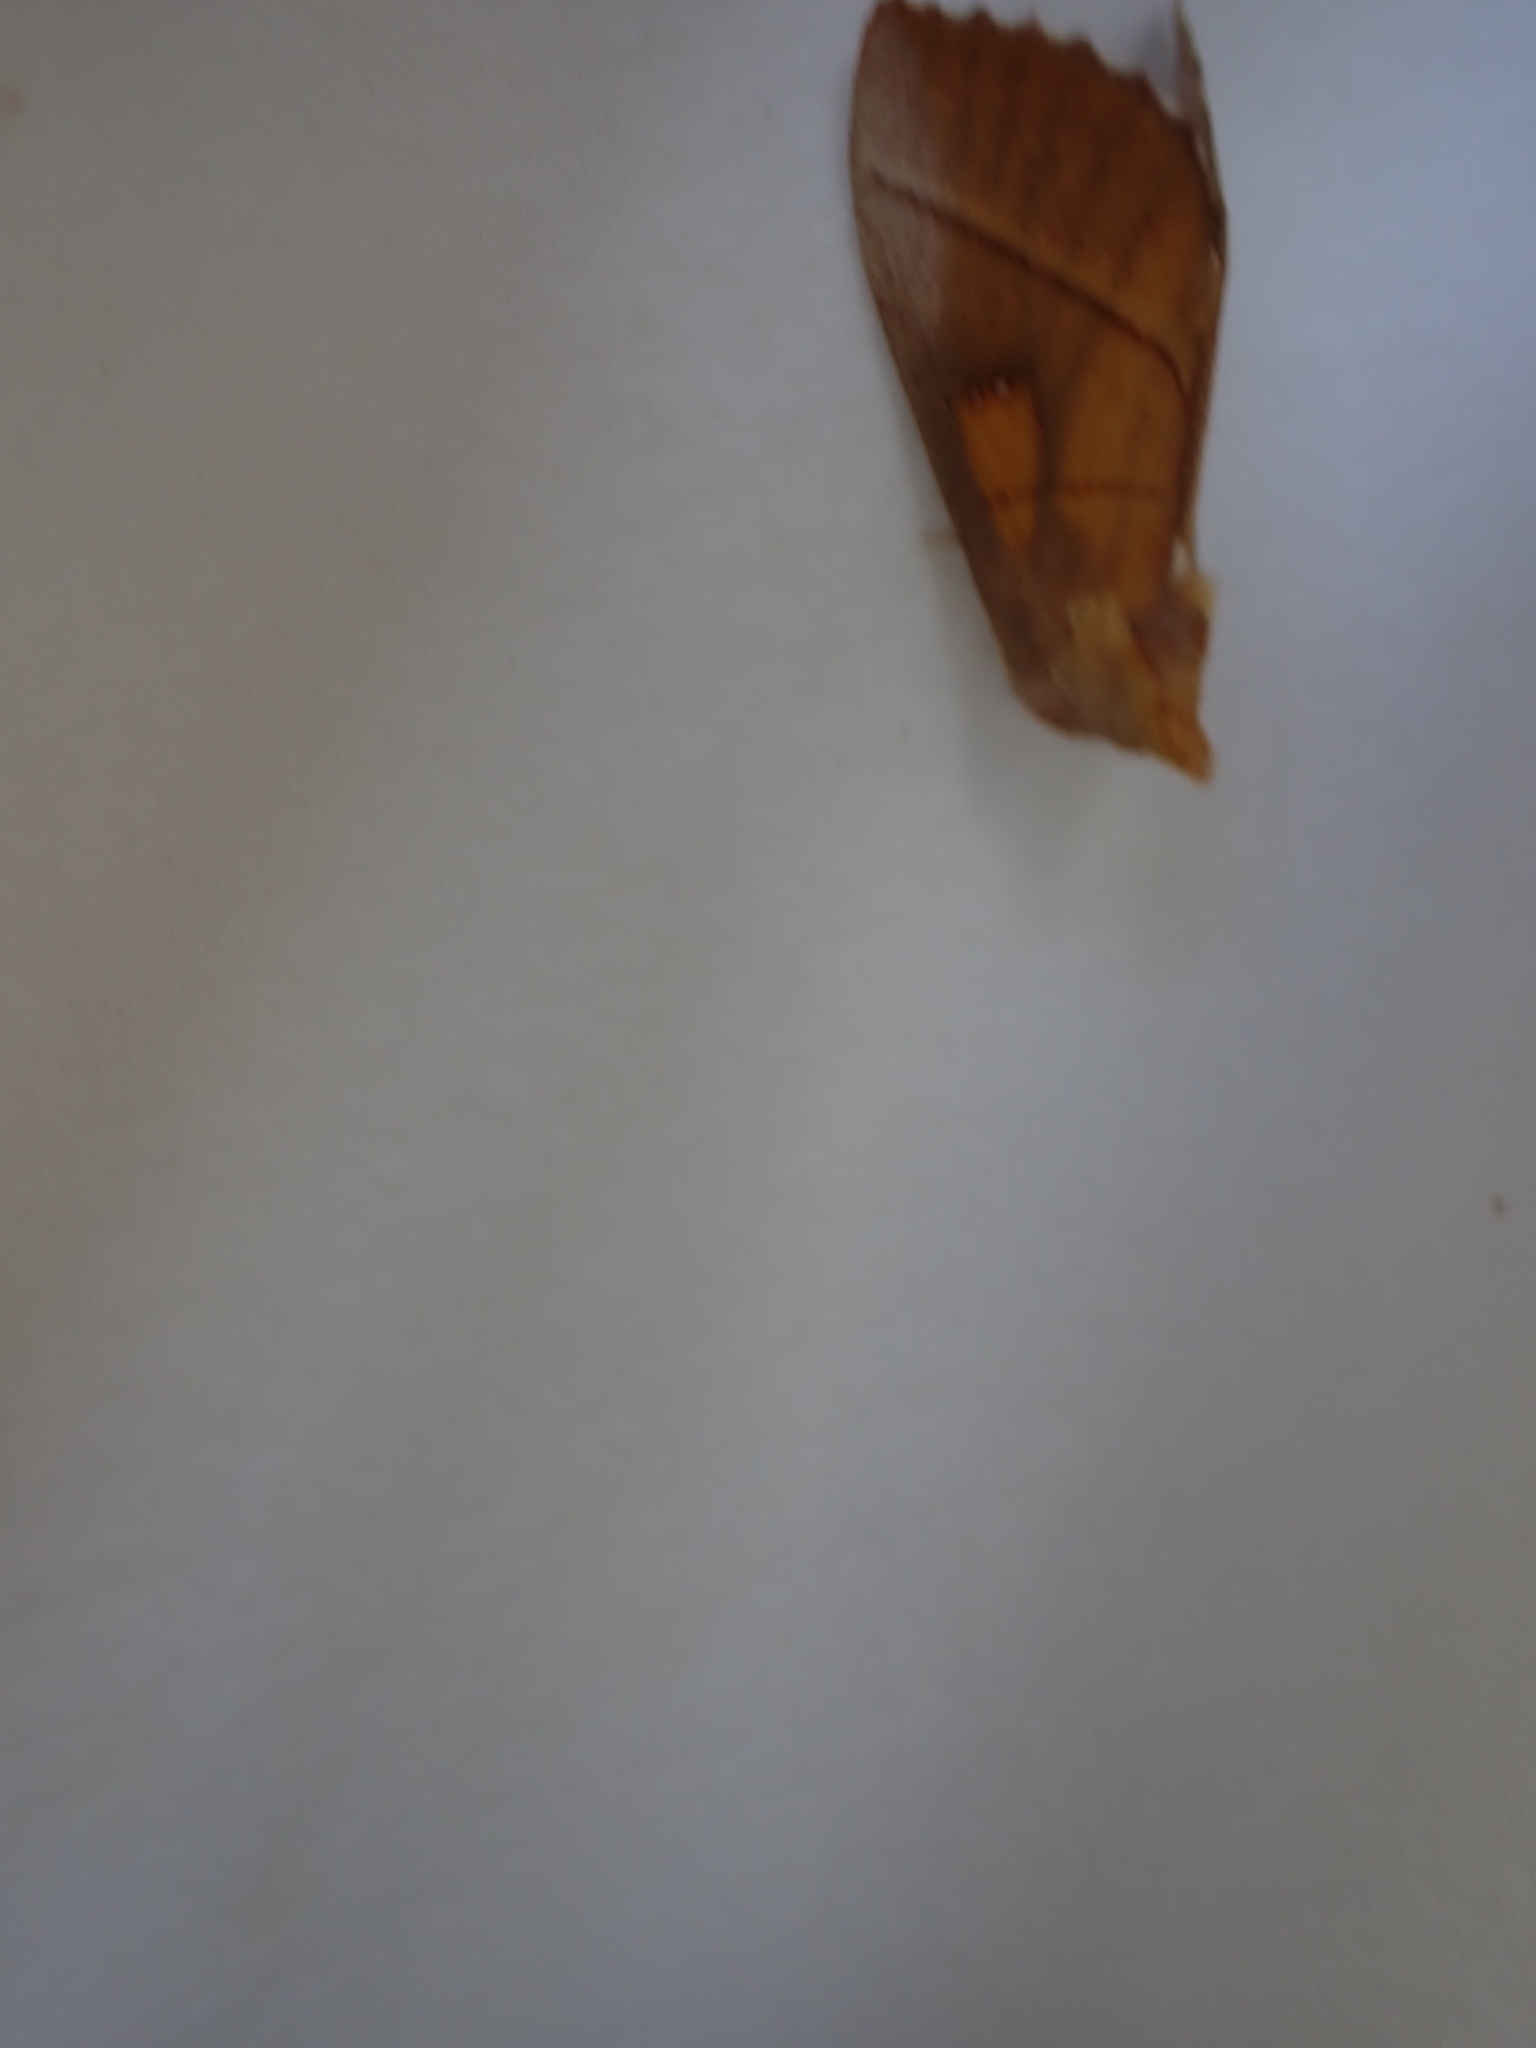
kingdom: Animalia
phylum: Arthropoda
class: Insecta
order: Lepidoptera
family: Notodontidae
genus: Nadata
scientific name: Nadata gibbosa
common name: White-dotted prominent
